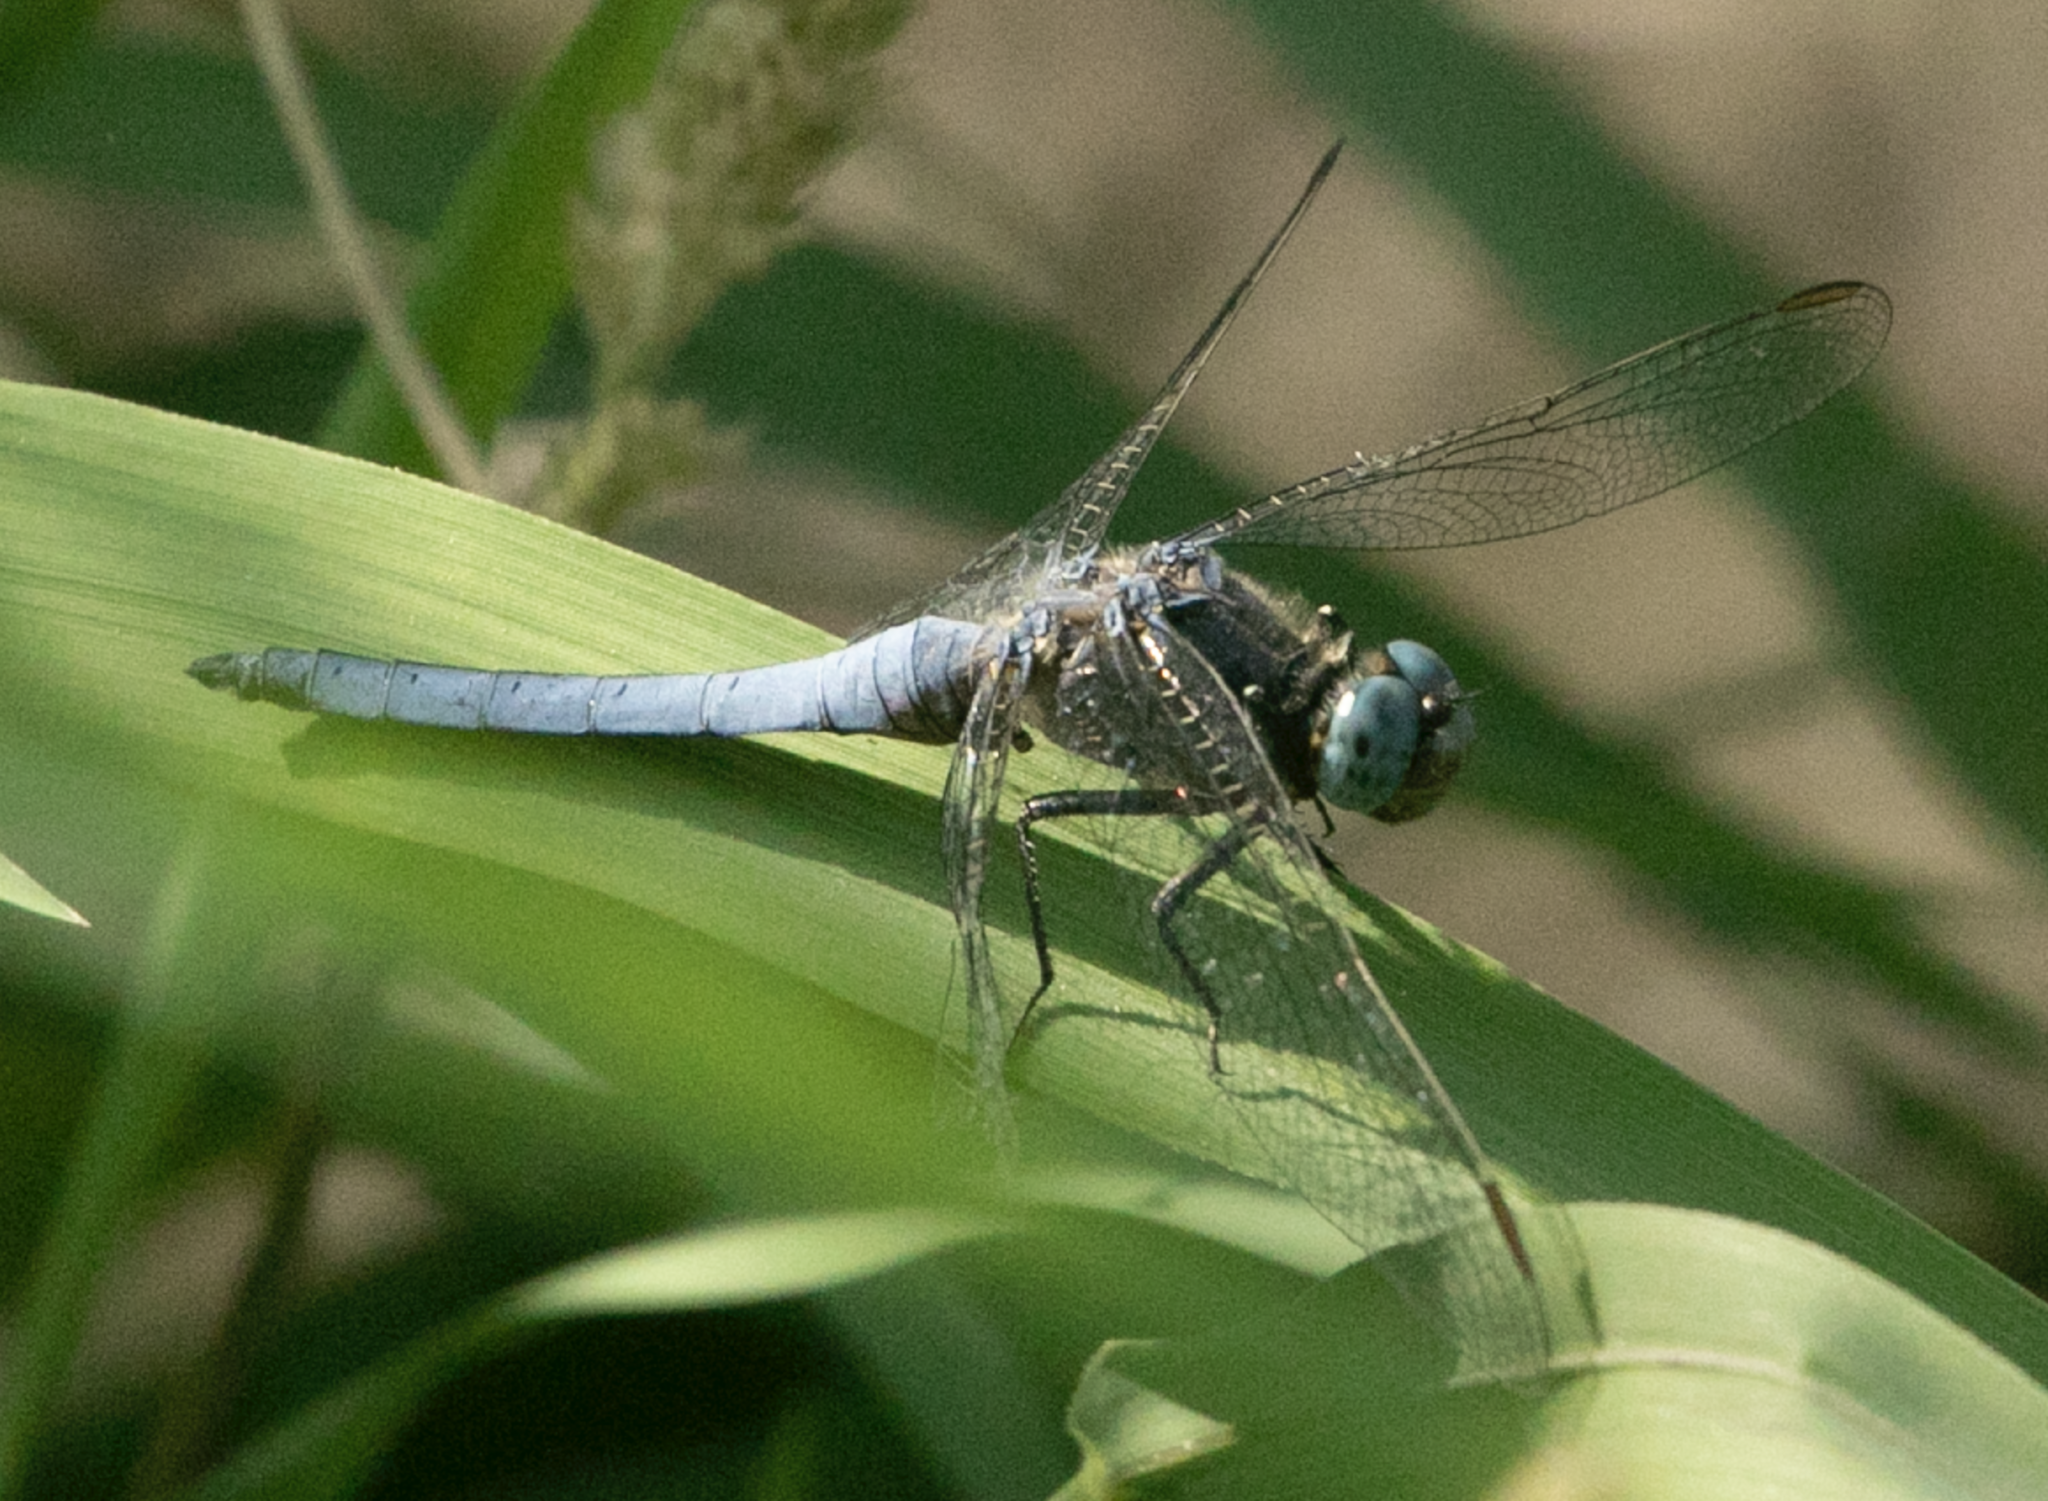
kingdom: Animalia
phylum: Arthropoda
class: Insecta
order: Odonata
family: Libellulidae
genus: Orthetrum
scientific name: Orthetrum coerulescens
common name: Keeled skimmer
